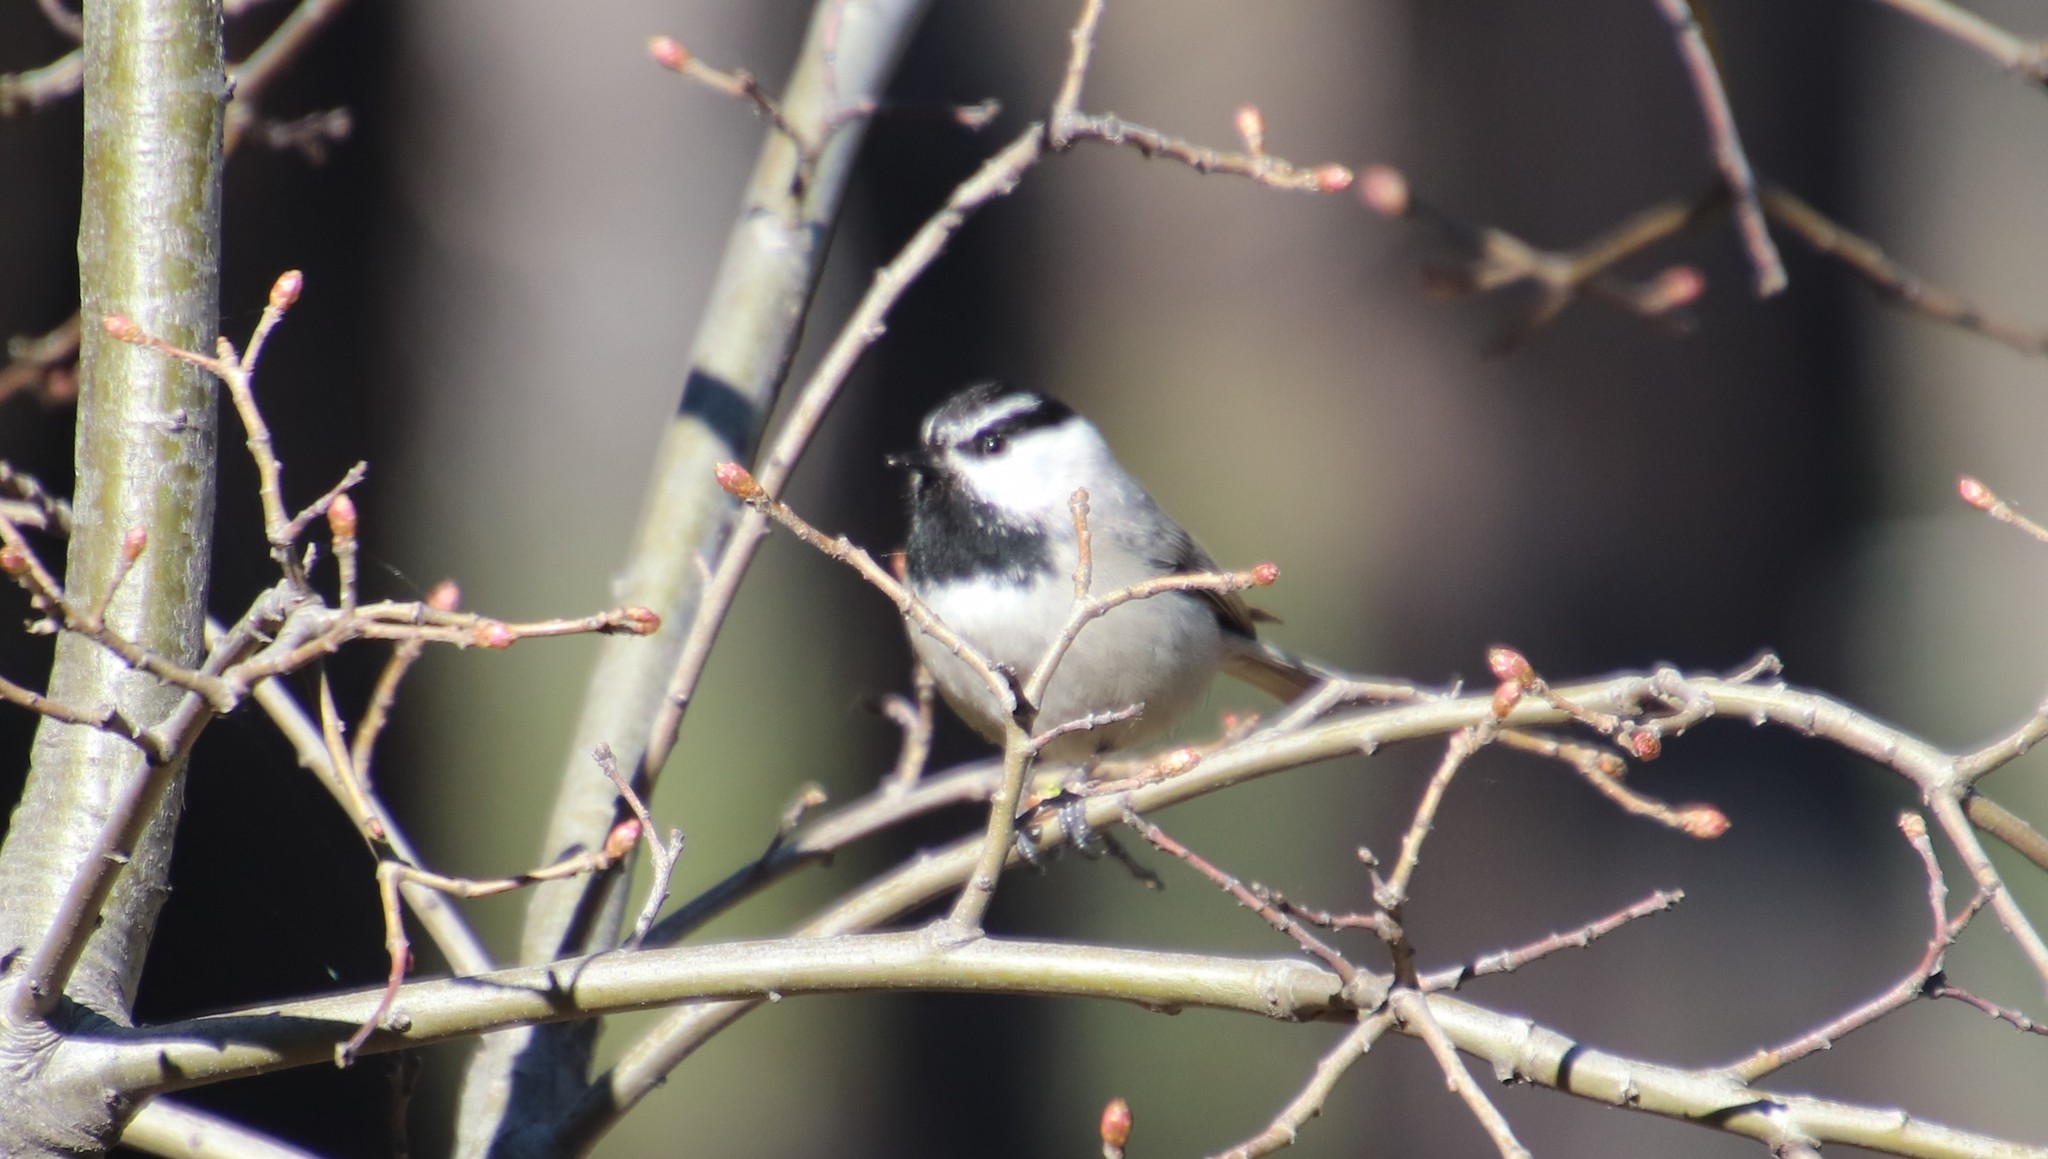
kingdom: Animalia
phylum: Chordata
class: Aves
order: Passeriformes
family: Paridae
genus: Poecile
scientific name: Poecile gambeli
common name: Mountain chickadee
